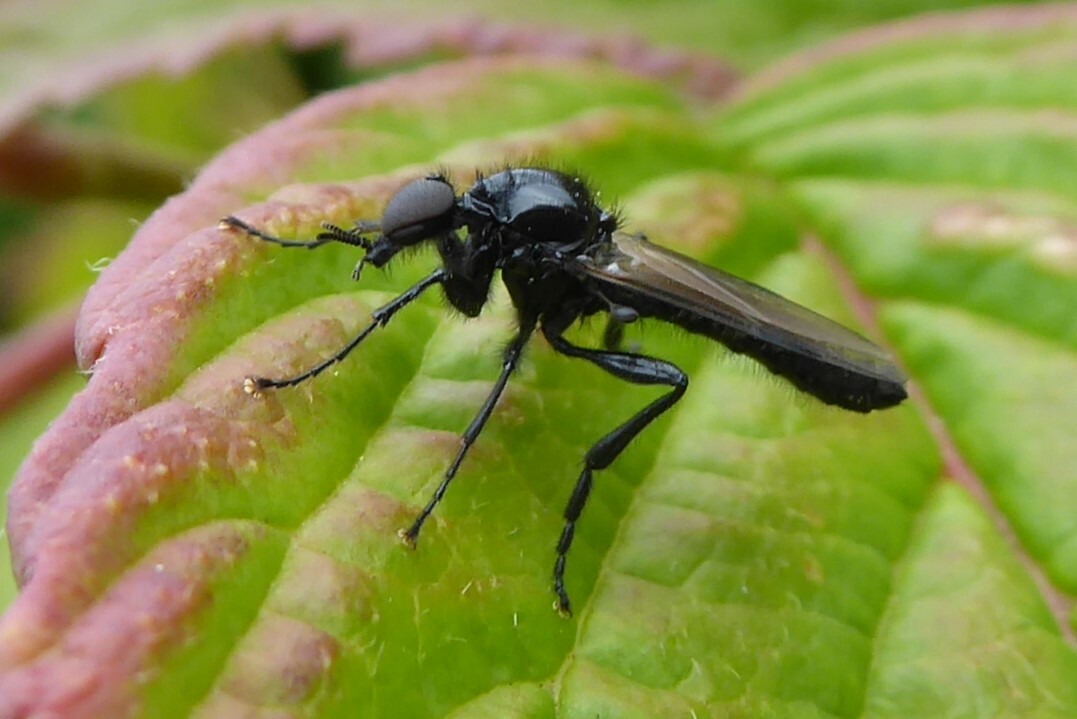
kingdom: Animalia
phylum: Arthropoda
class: Insecta
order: Diptera
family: Bibionidae
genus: Dilophus
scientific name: Dilophus nigrostigma
